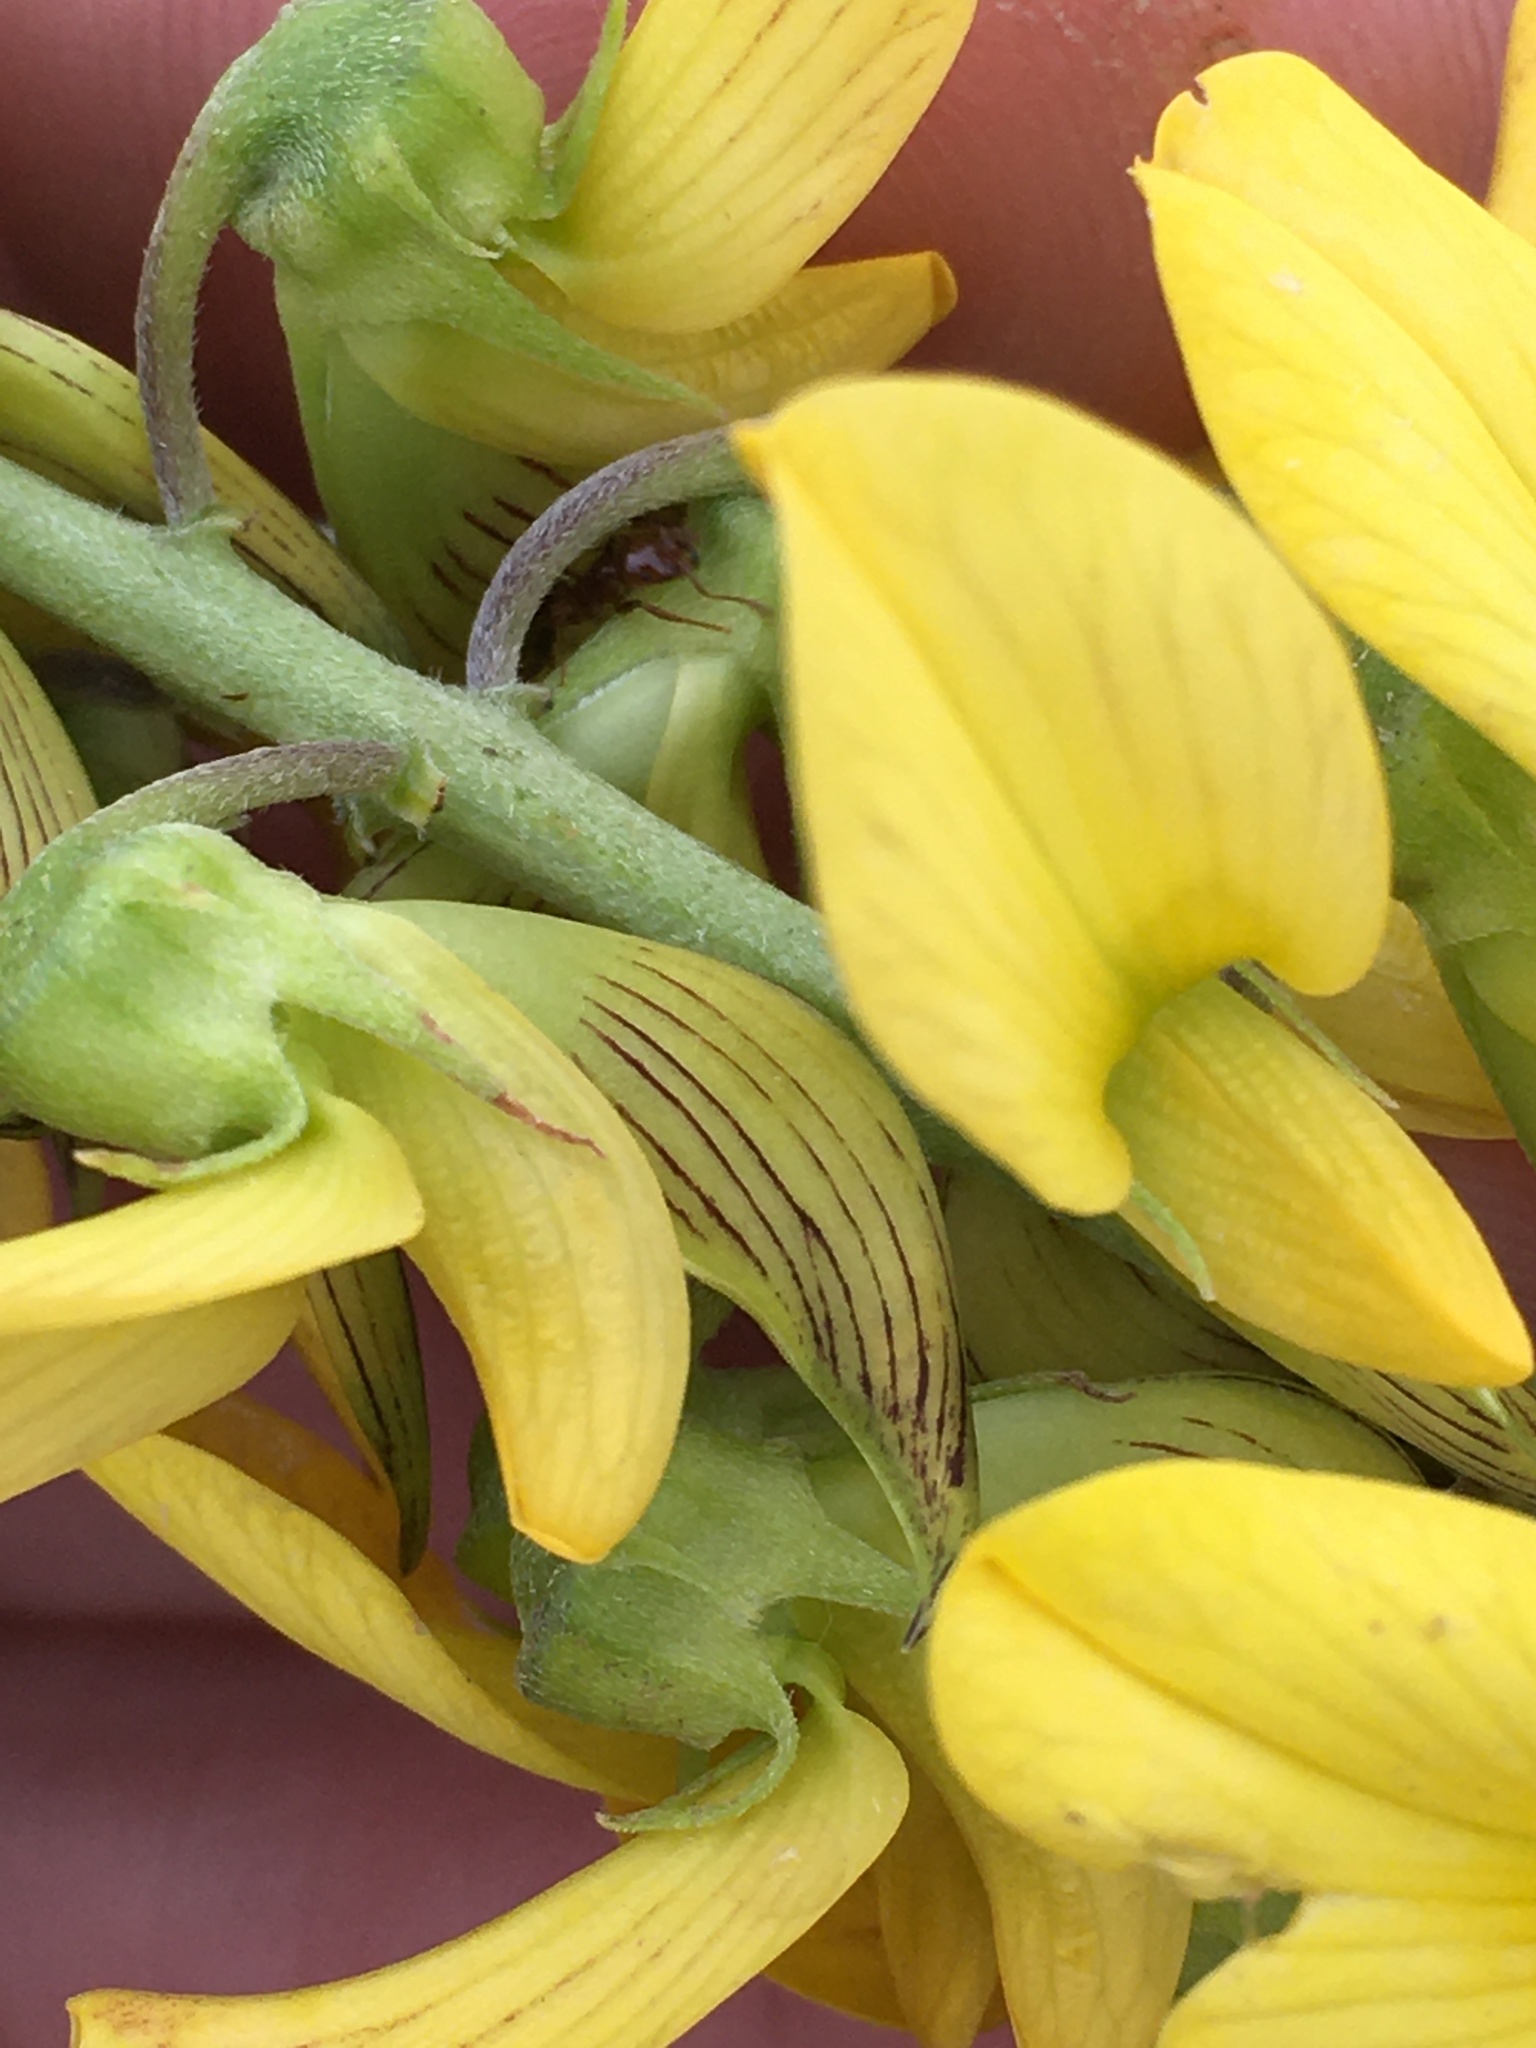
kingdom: Plantae
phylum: Tracheophyta
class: Magnoliopsida
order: Fabales
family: Fabaceae
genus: Crotalaria
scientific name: Crotalaria pallida
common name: Smooth rattlebox
